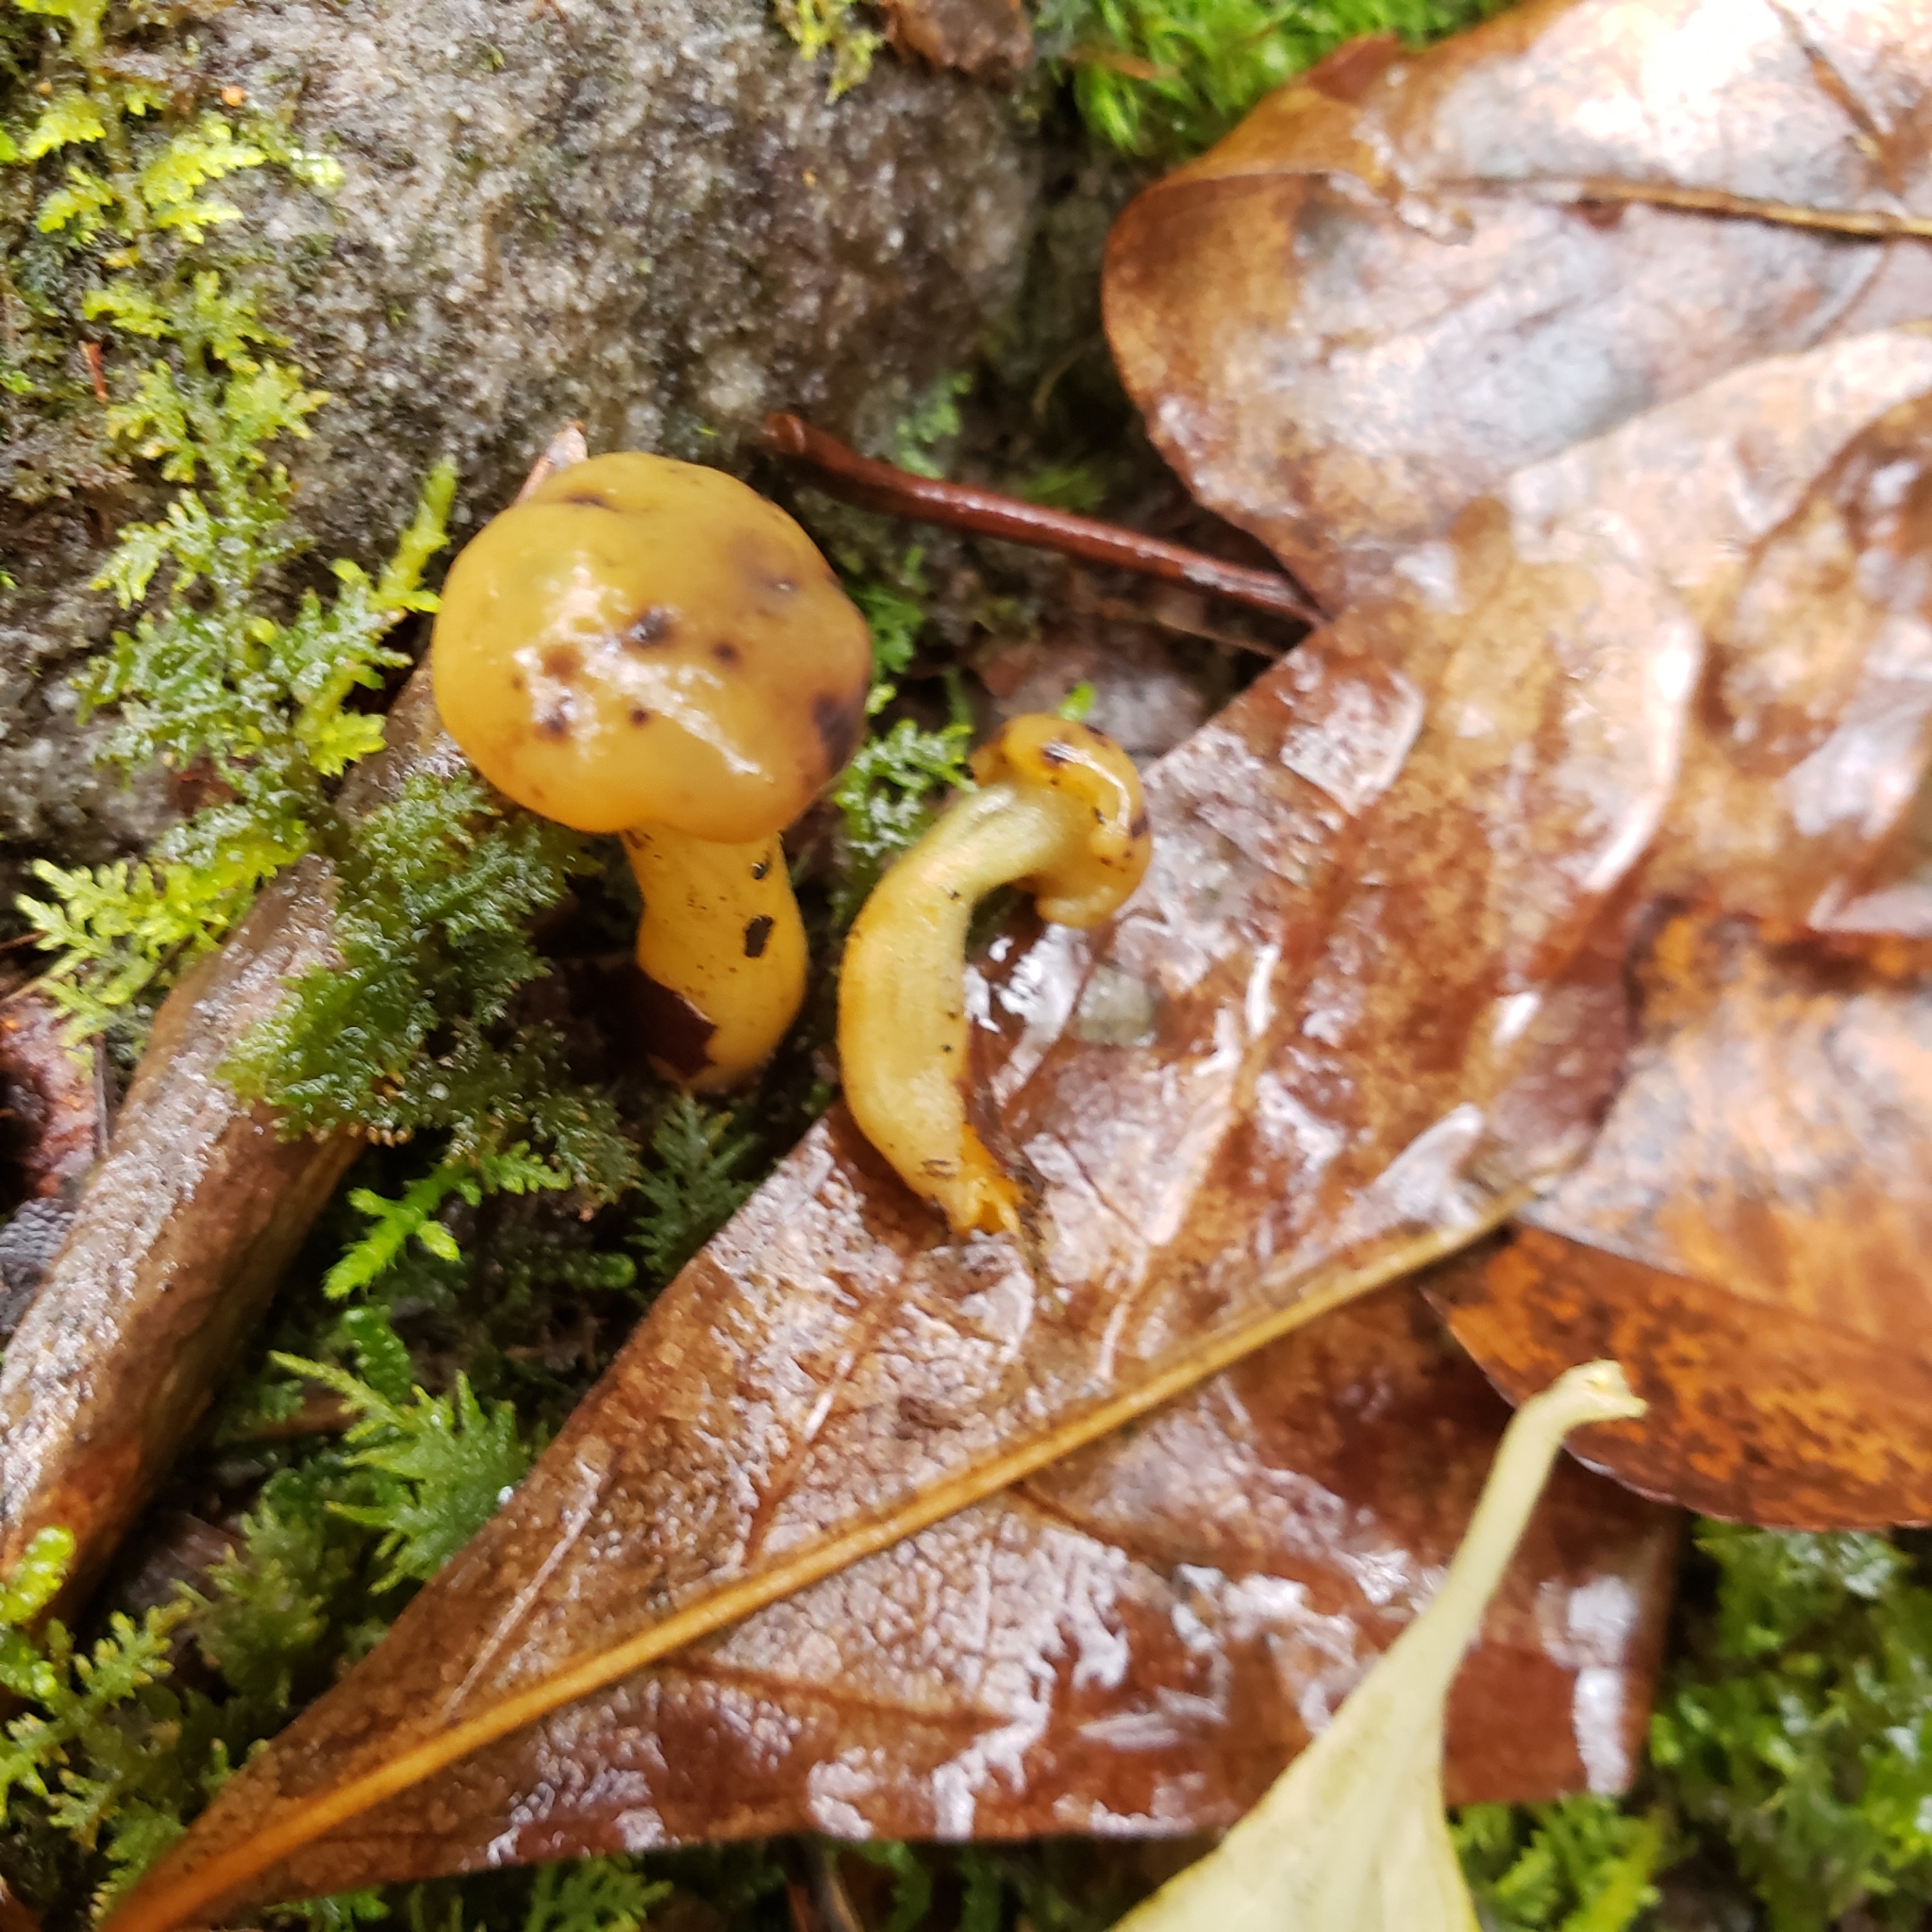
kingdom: Fungi
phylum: Ascomycota
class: Leotiomycetes
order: Leotiales
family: Leotiaceae
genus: Leotia
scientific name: Leotia lubrica
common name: Jellybaby
